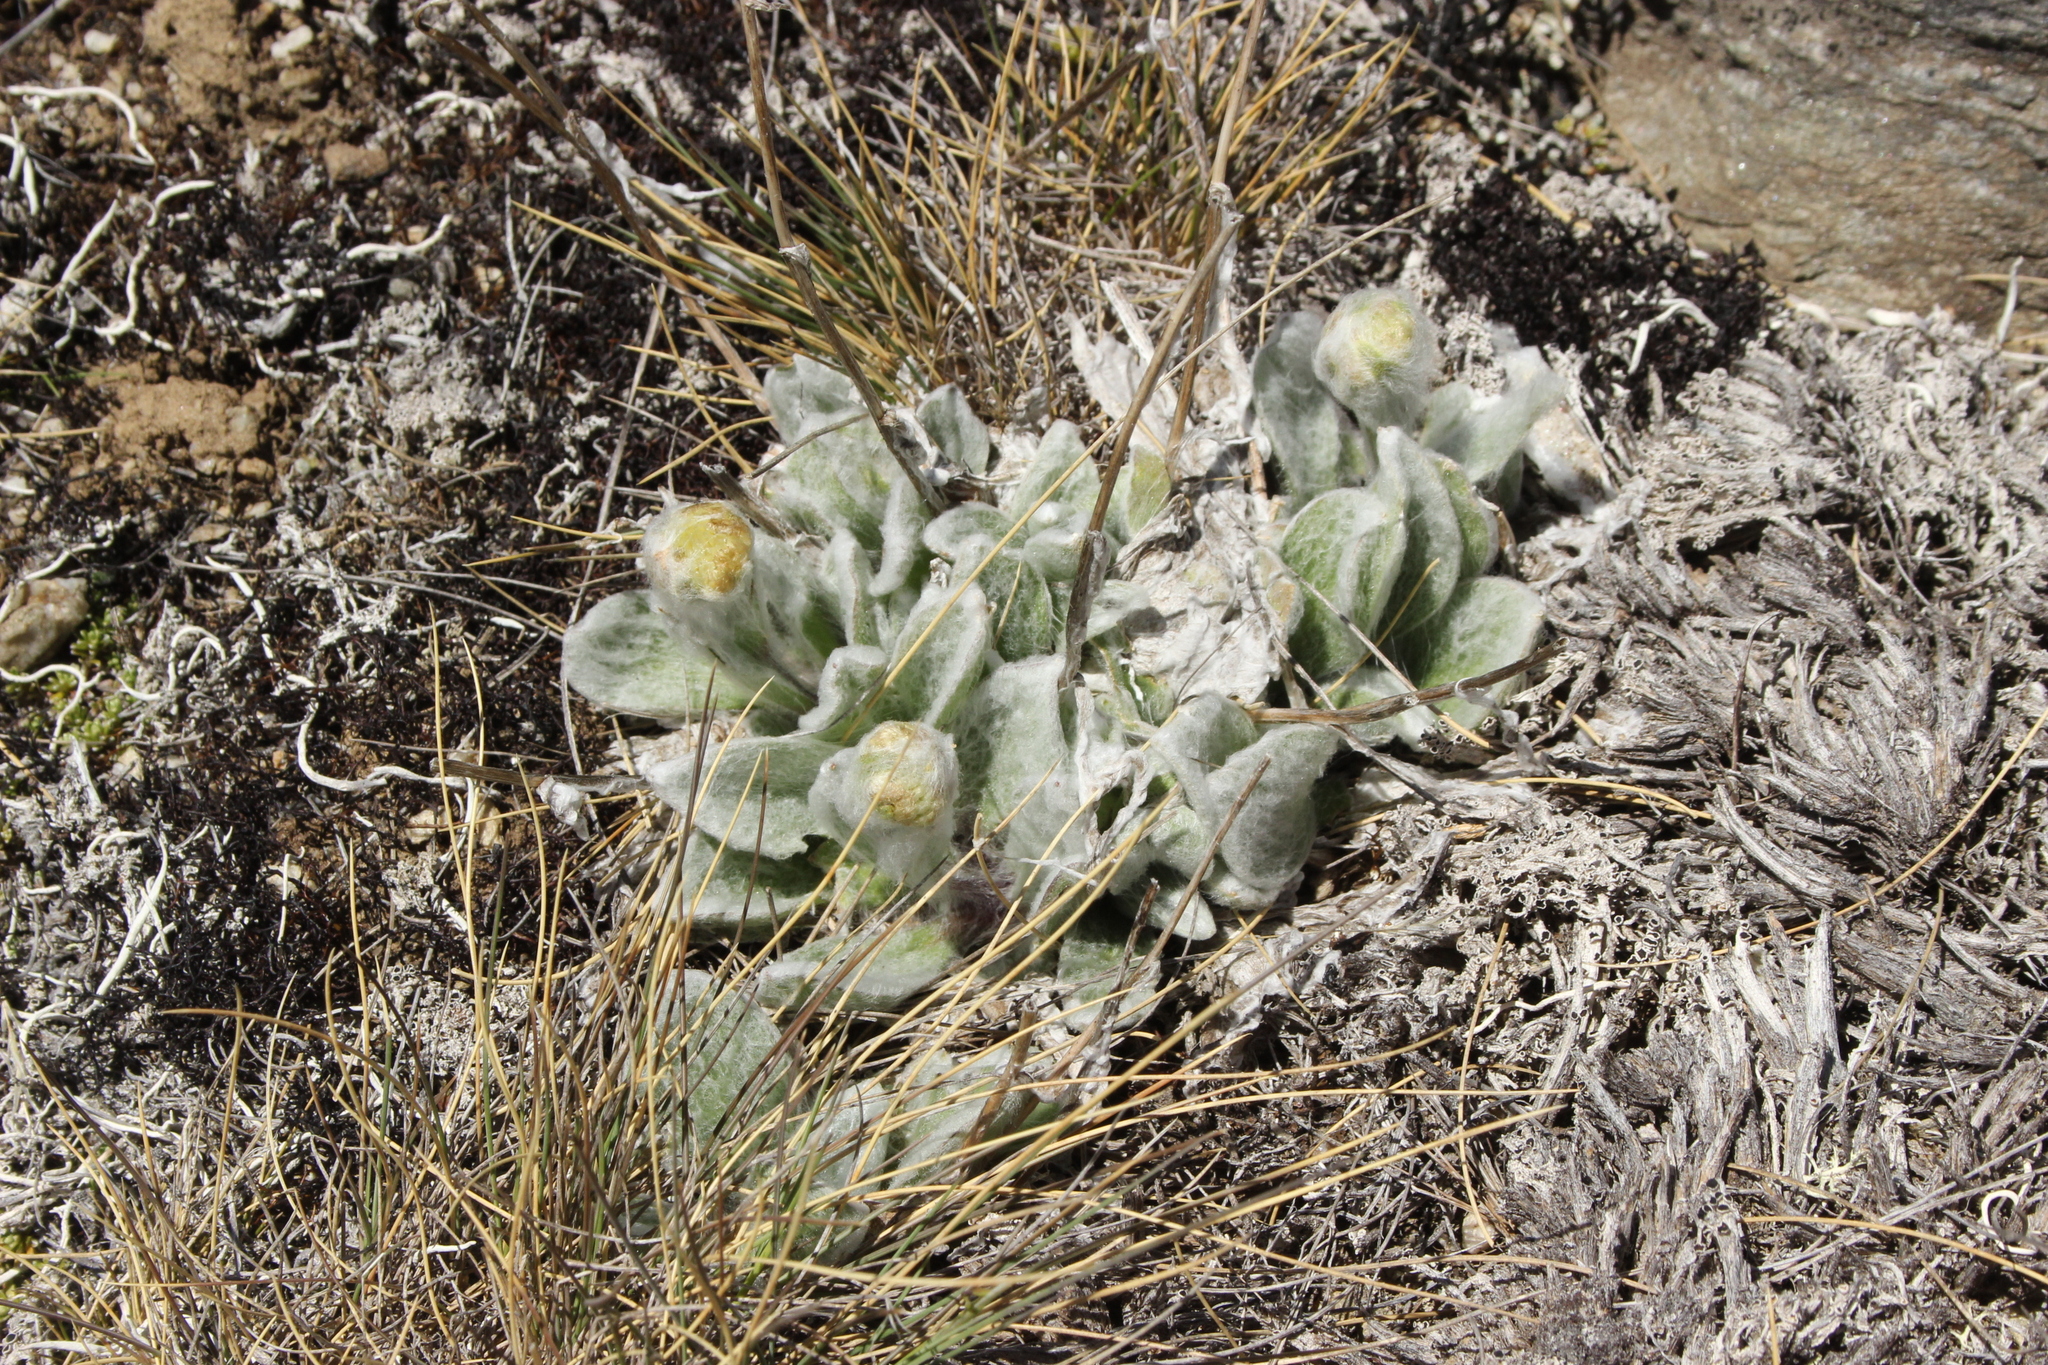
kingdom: Plantae
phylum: Tracheophyta
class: Magnoliopsida
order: Asterales
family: Asteraceae
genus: Craspedia
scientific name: Craspedia lanata
